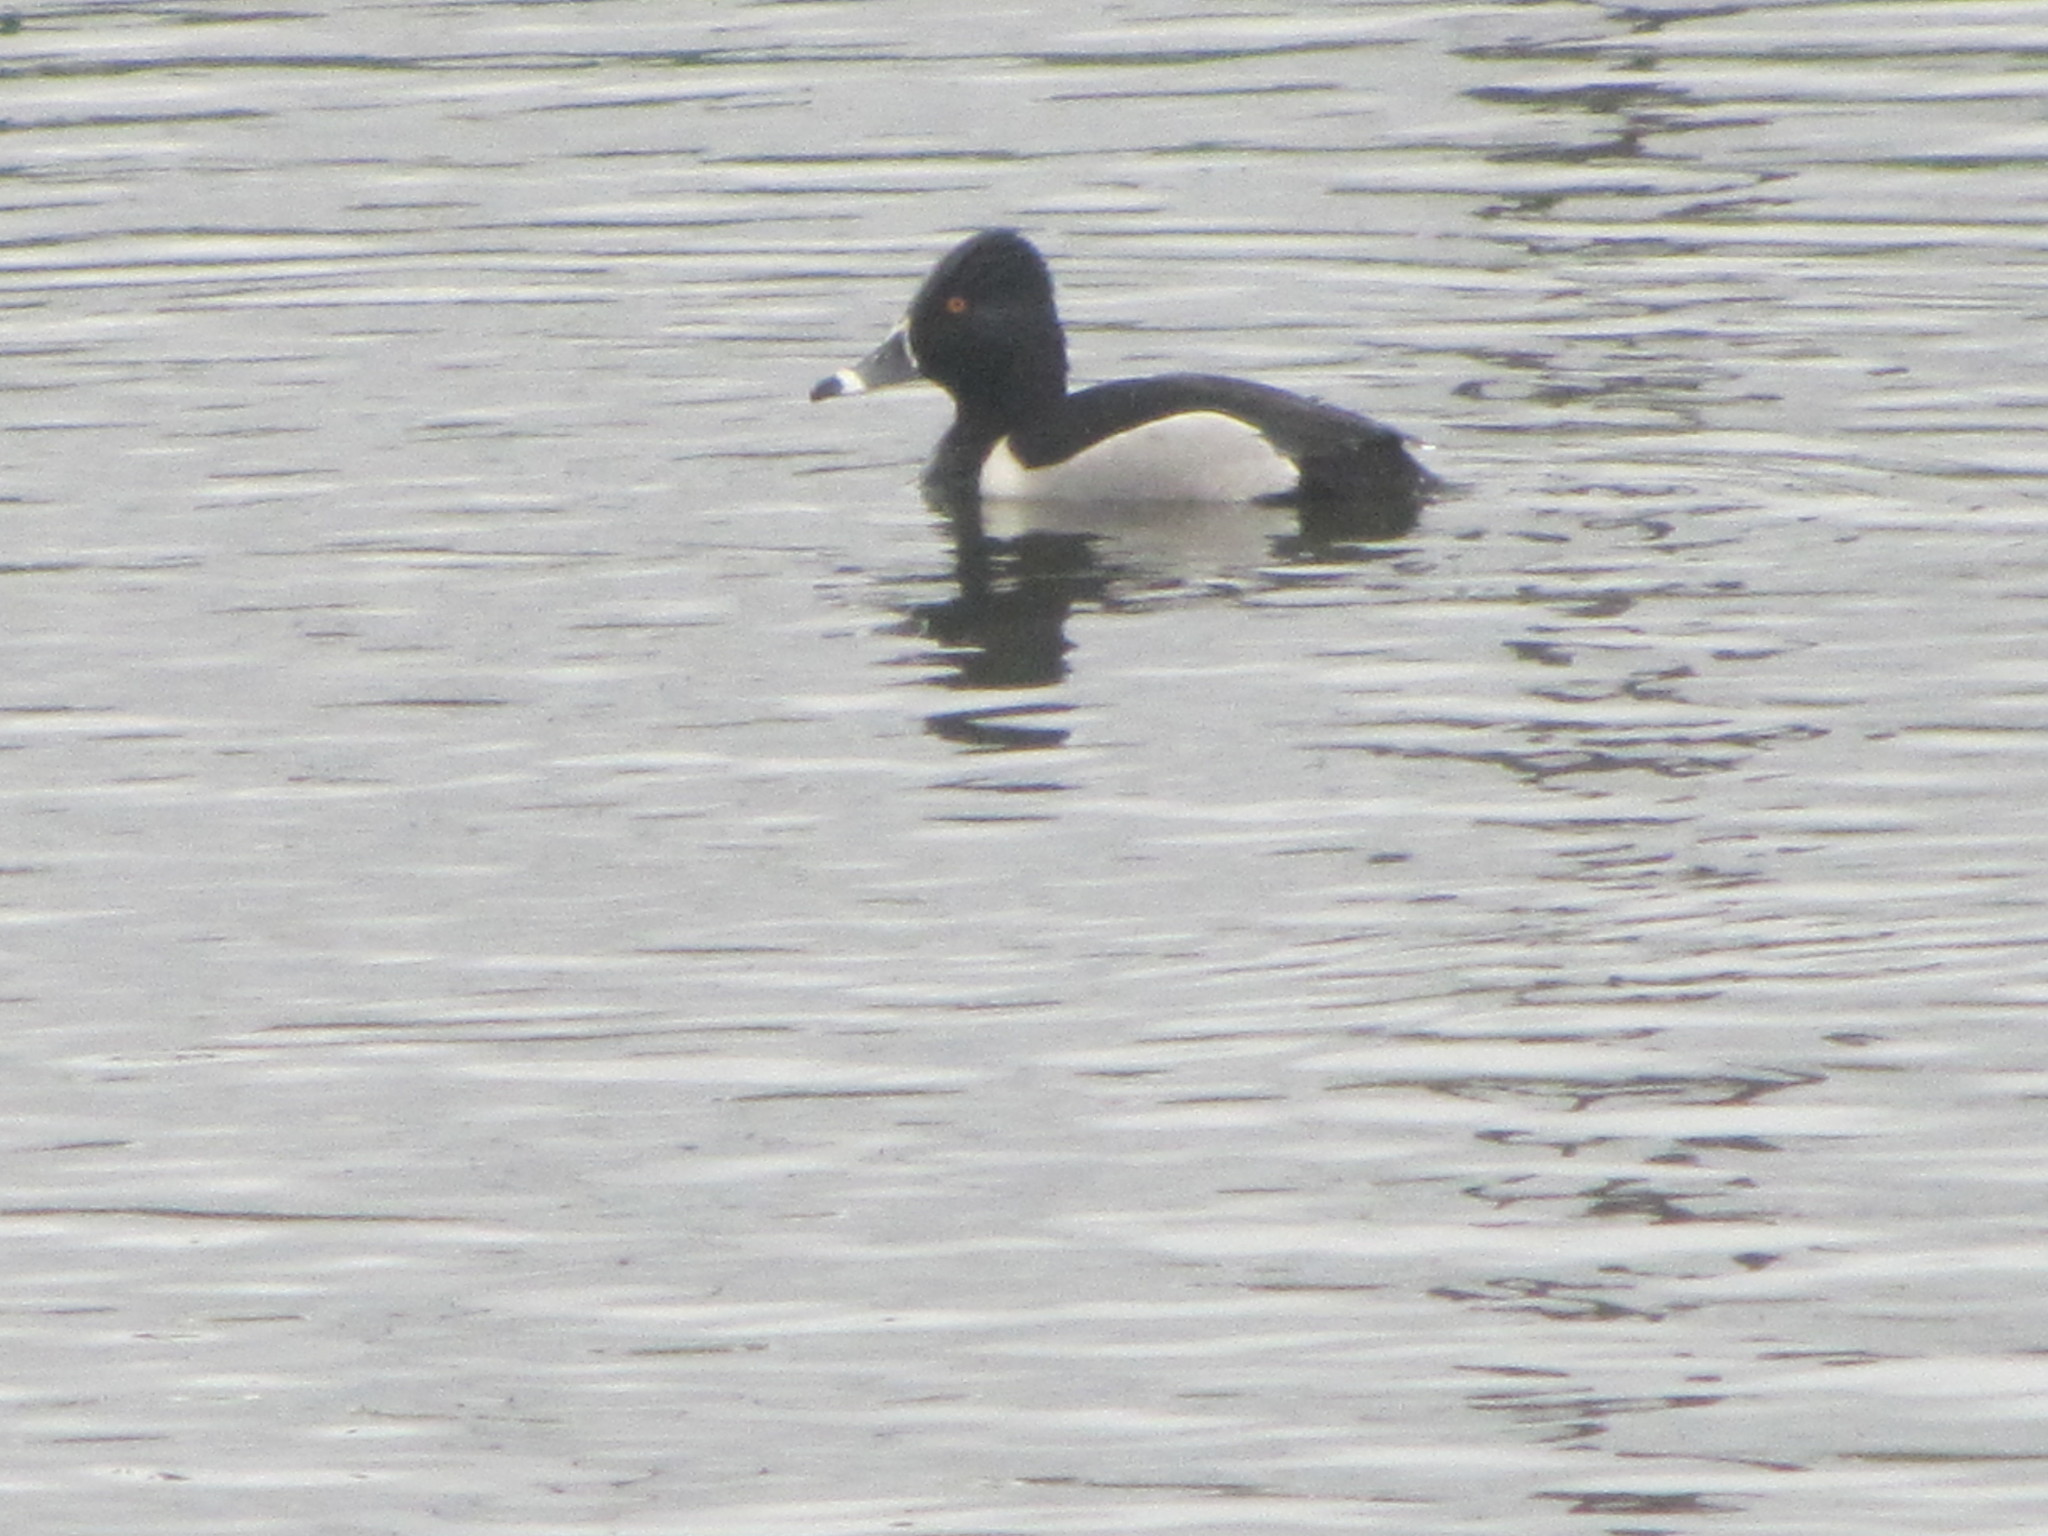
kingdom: Animalia
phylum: Chordata
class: Aves
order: Anseriformes
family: Anatidae
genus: Aythya
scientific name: Aythya collaris
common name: Ring-necked duck
